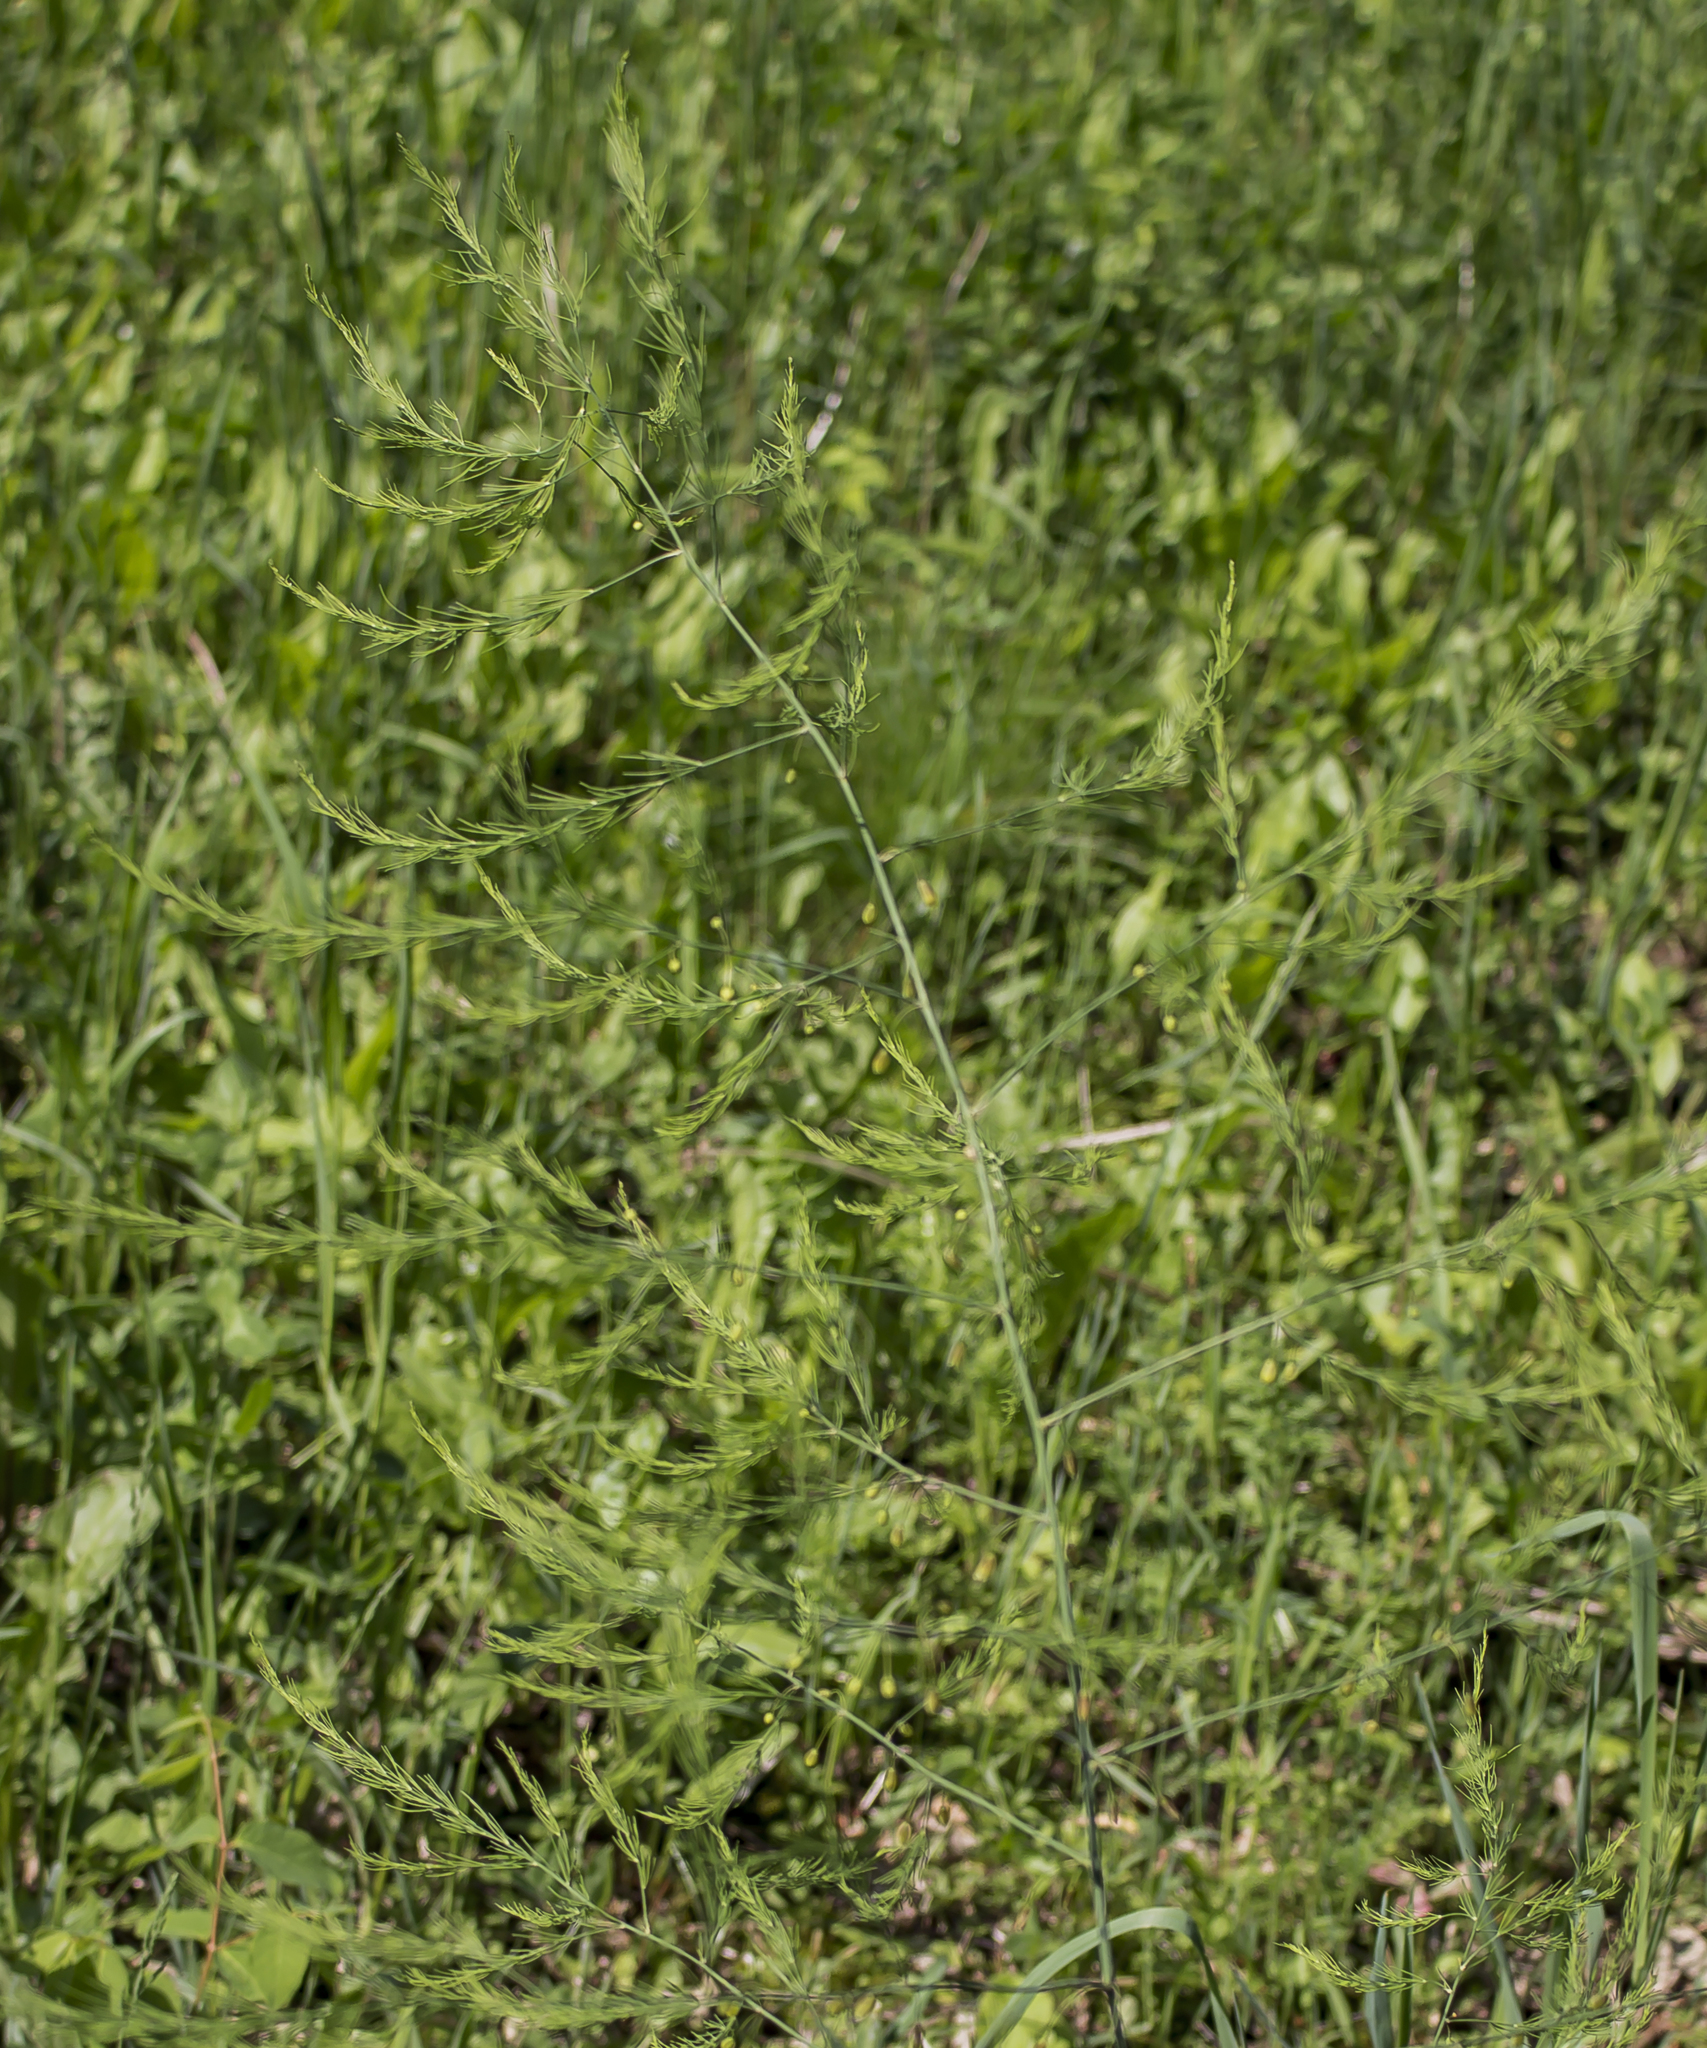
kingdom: Plantae
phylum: Tracheophyta
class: Liliopsida
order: Asparagales
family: Asparagaceae
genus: Asparagus
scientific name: Asparagus officinalis
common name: Garden asparagus
